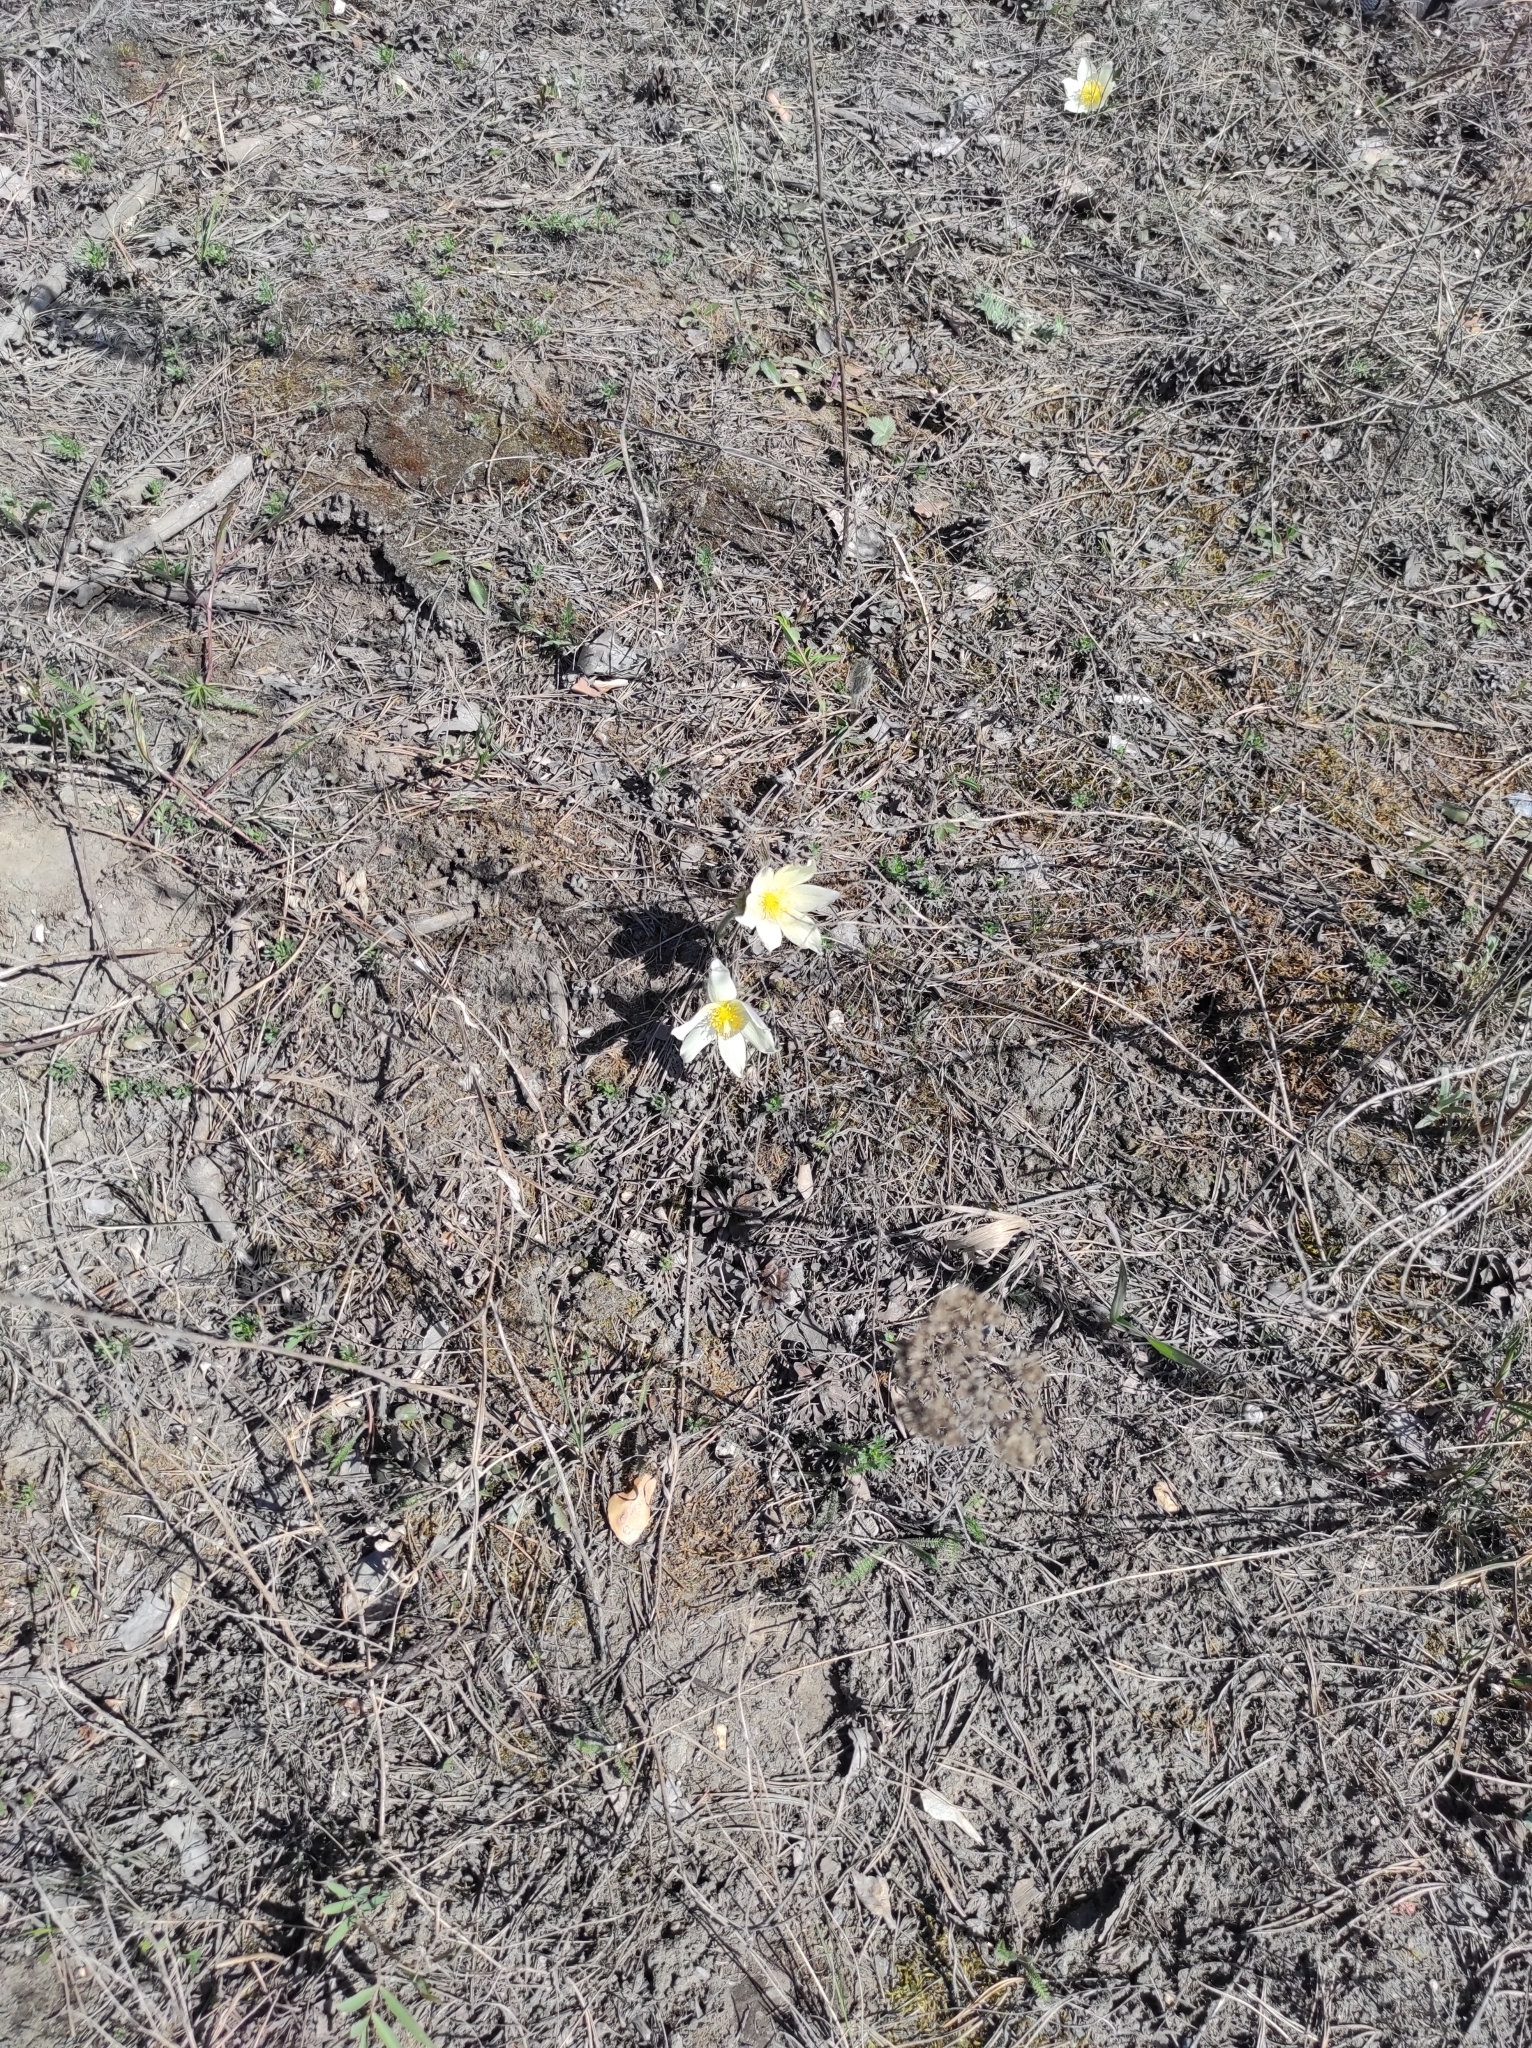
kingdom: Plantae
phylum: Tracheophyta
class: Magnoliopsida
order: Ranunculales
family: Ranunculaceae
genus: Pulsatilla
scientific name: Pulsatilla patens
